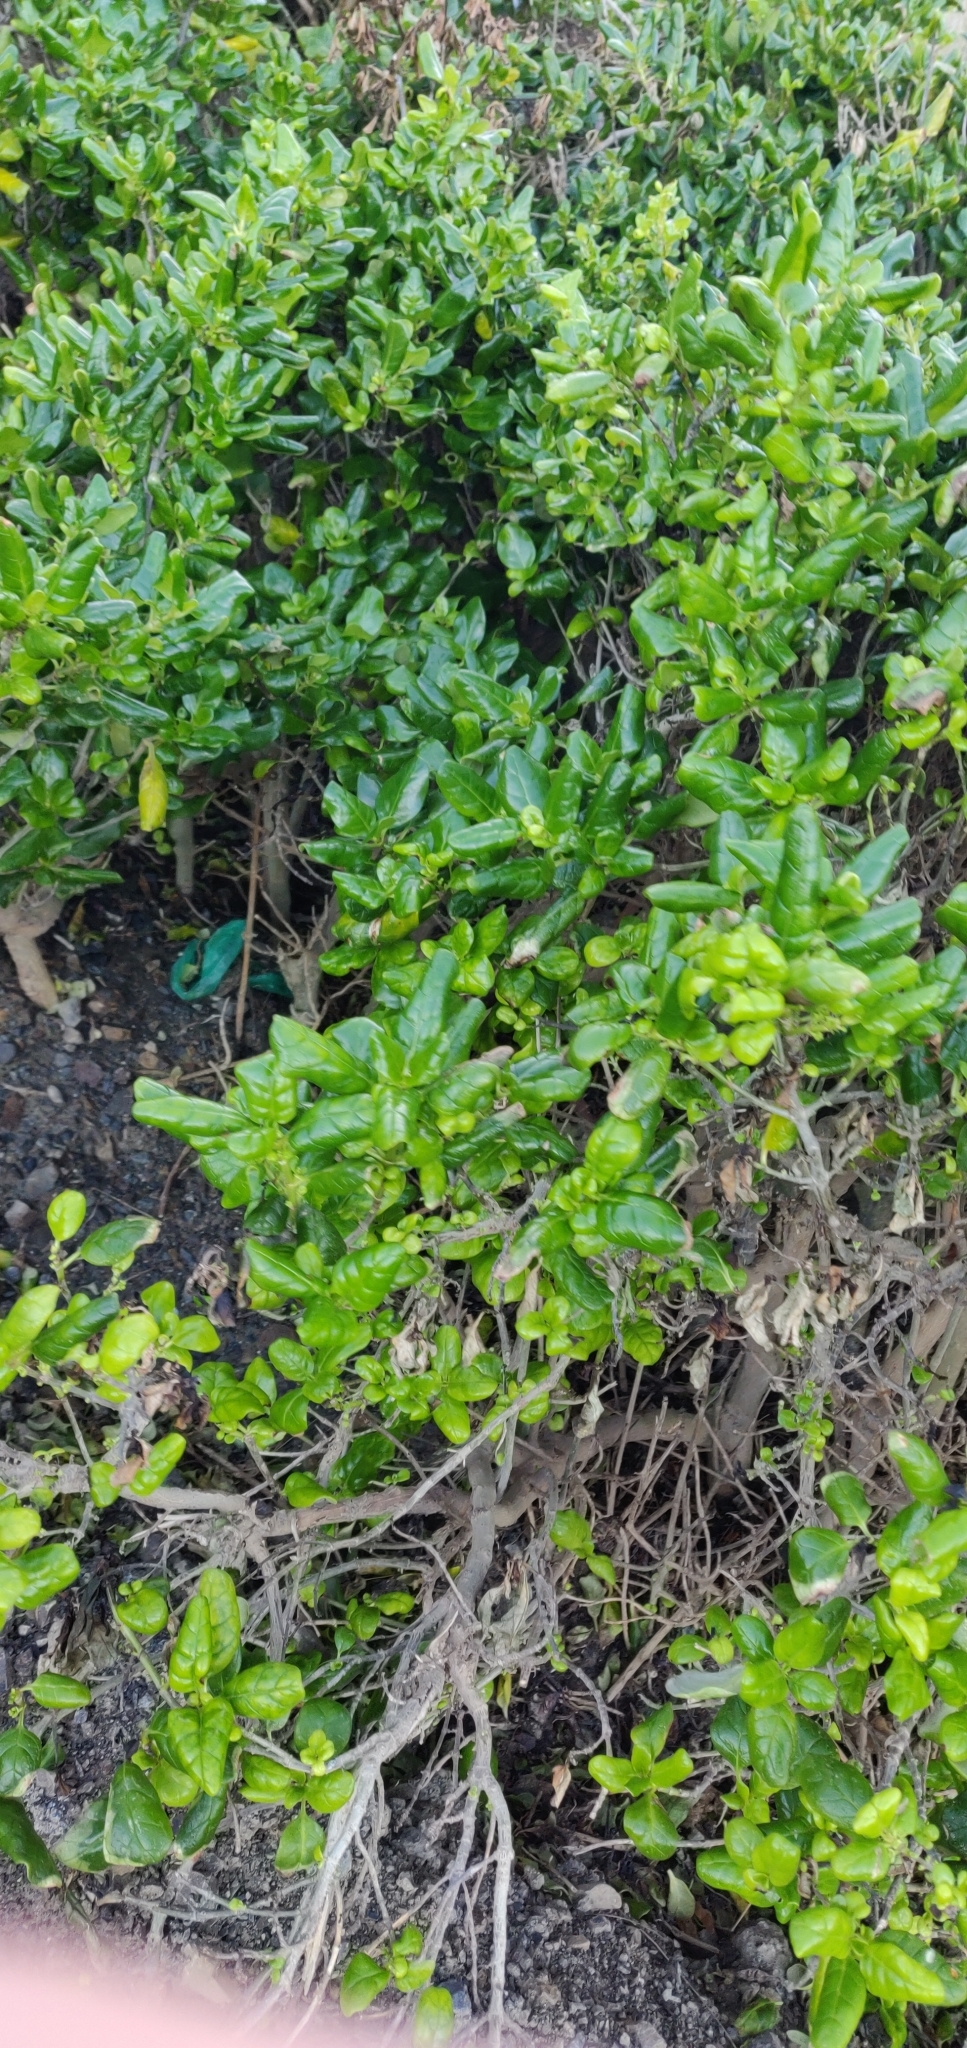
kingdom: Plantae
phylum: Tracheophyta
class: Magnoliopsida
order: Gentianales
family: Rubiaceae
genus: Coprosma
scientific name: Coprosma repens
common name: Tree bedstraw
